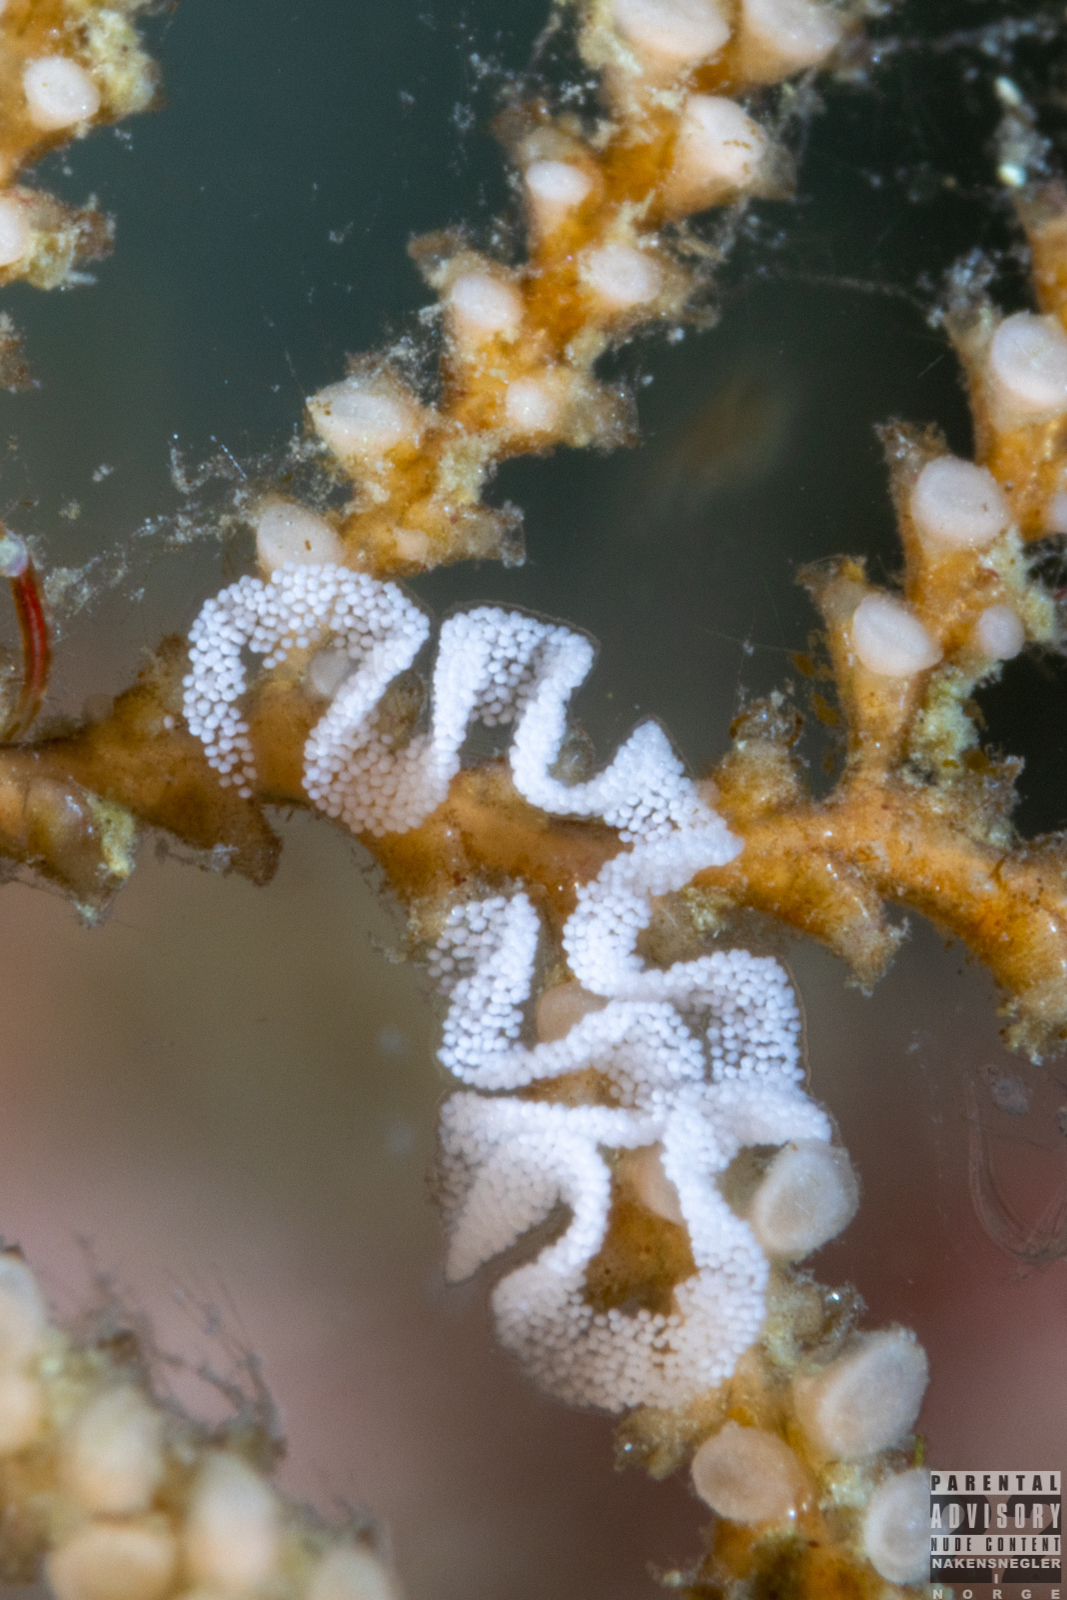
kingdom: Animalia
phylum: Mollusca
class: Gastropoda
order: Nudibranchia
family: Dotidae
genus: Doto
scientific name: Doto coronata
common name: Coronate doto
